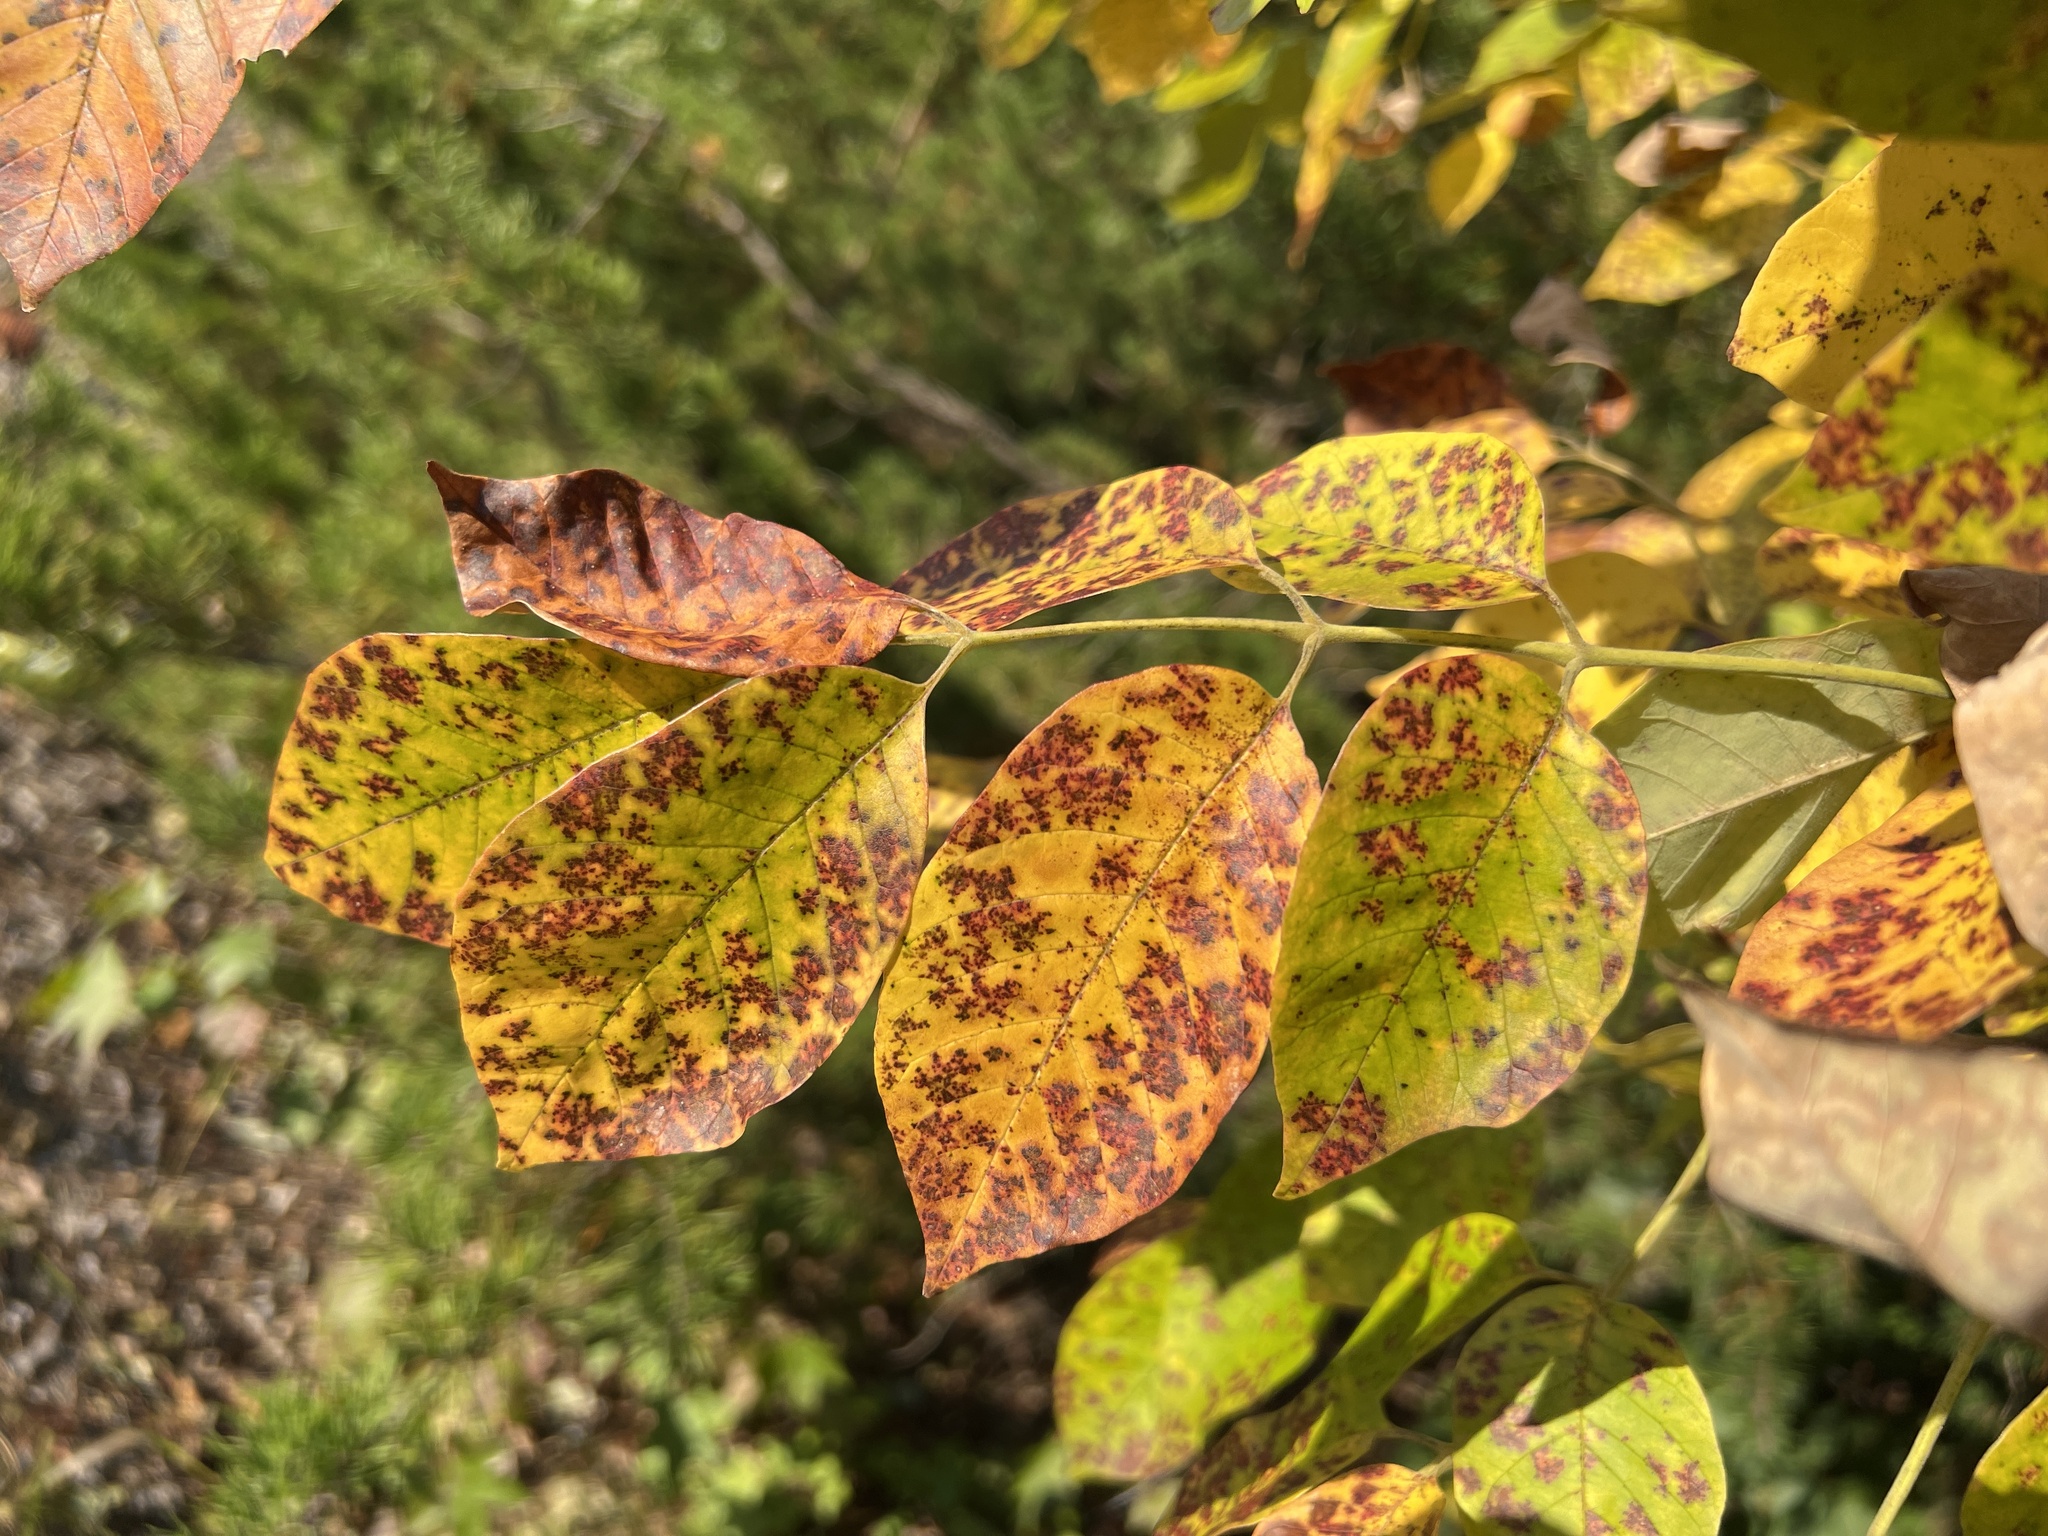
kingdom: Plantae
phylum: Tracheophyta
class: Magnoliopsida
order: Lamiales
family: Oleaceae
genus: Fraxinus
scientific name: Fraxinus americana
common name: White ash
